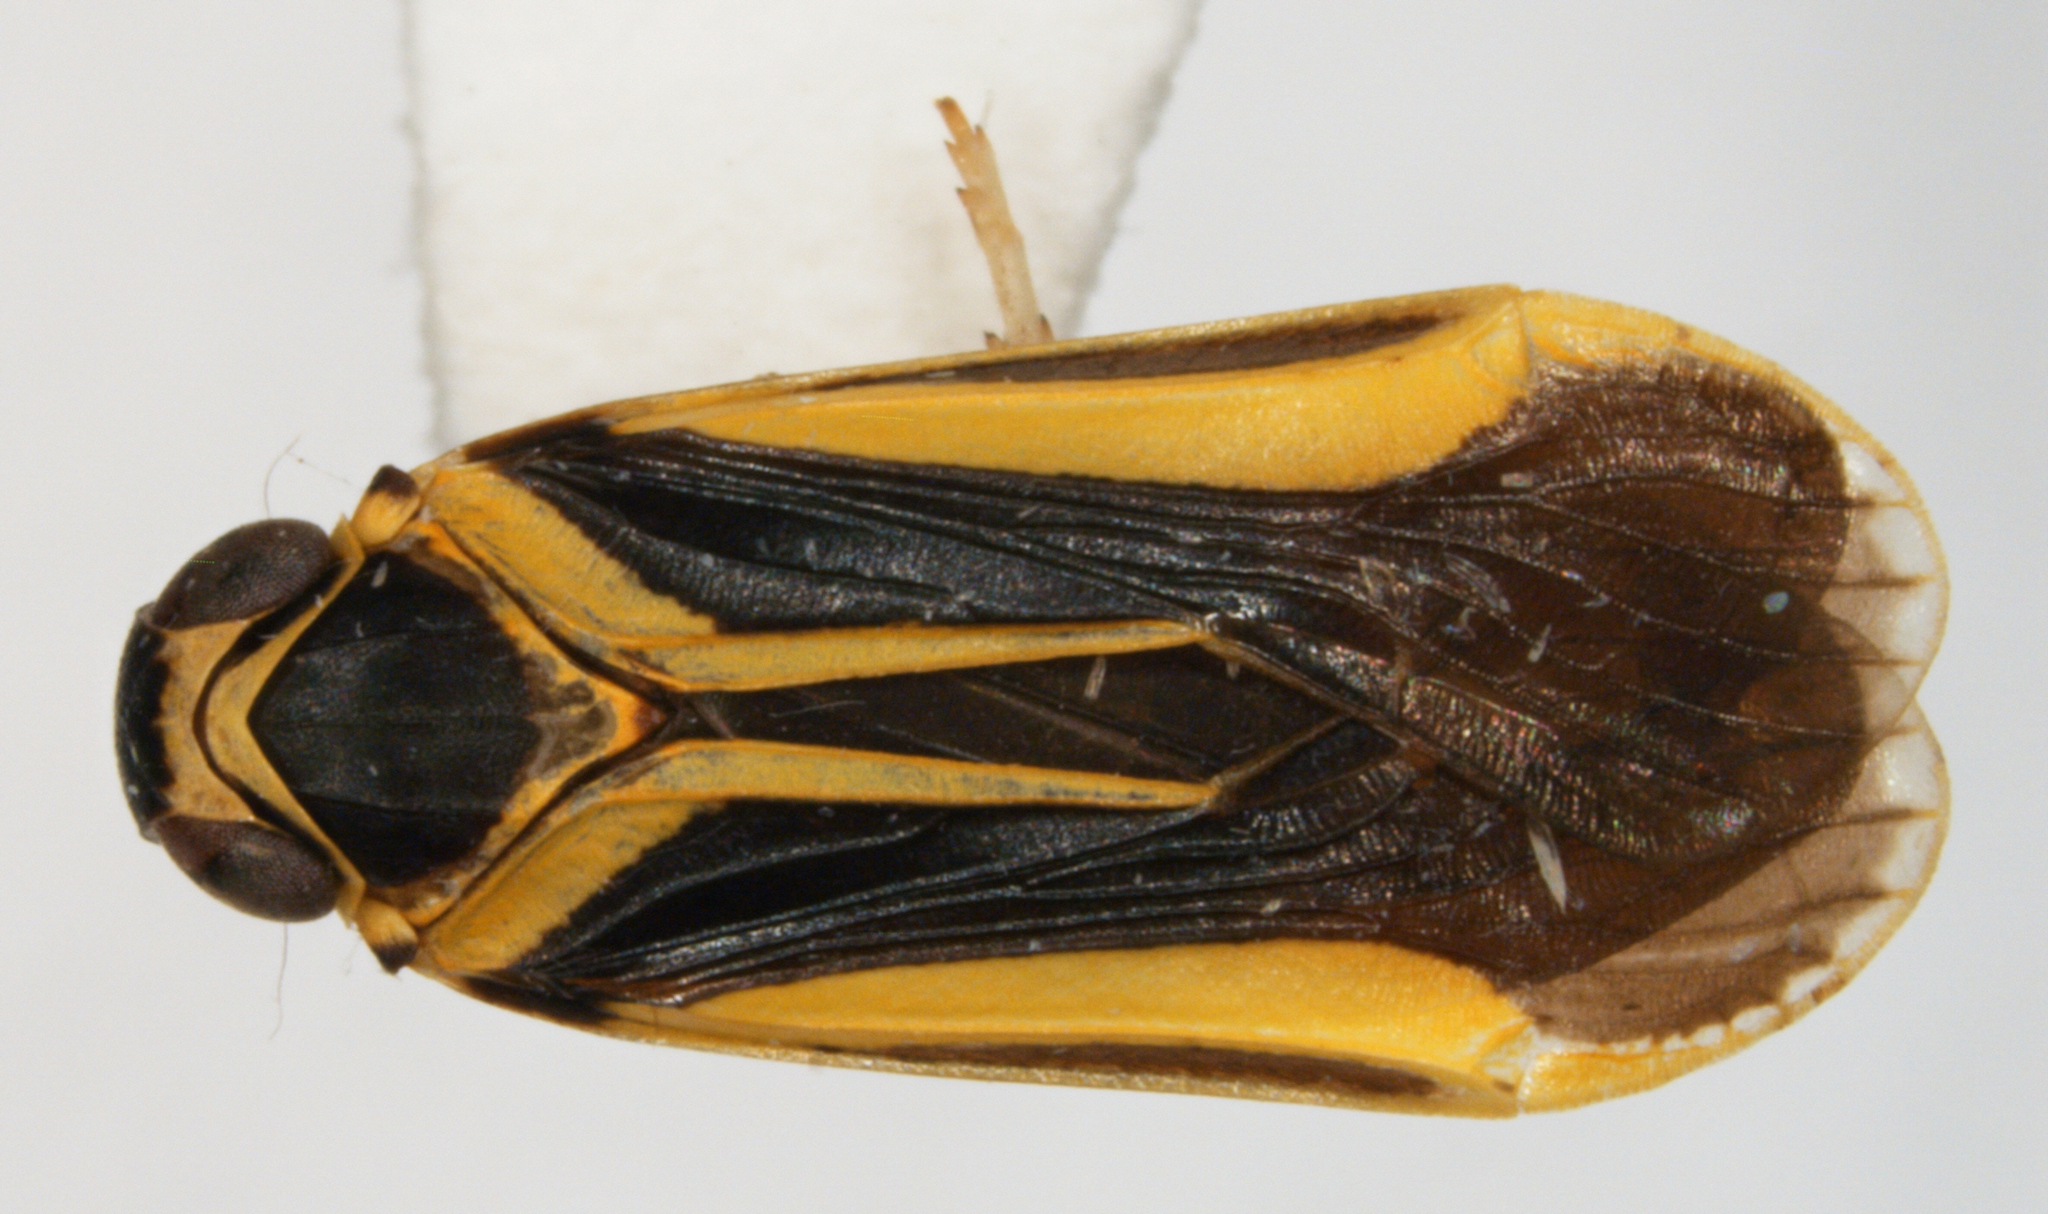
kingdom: Animalia
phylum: Arthropoda
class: Insecta
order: Hemiptera
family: Achilidae
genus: Plectoderes
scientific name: Plectoderes scapularis
